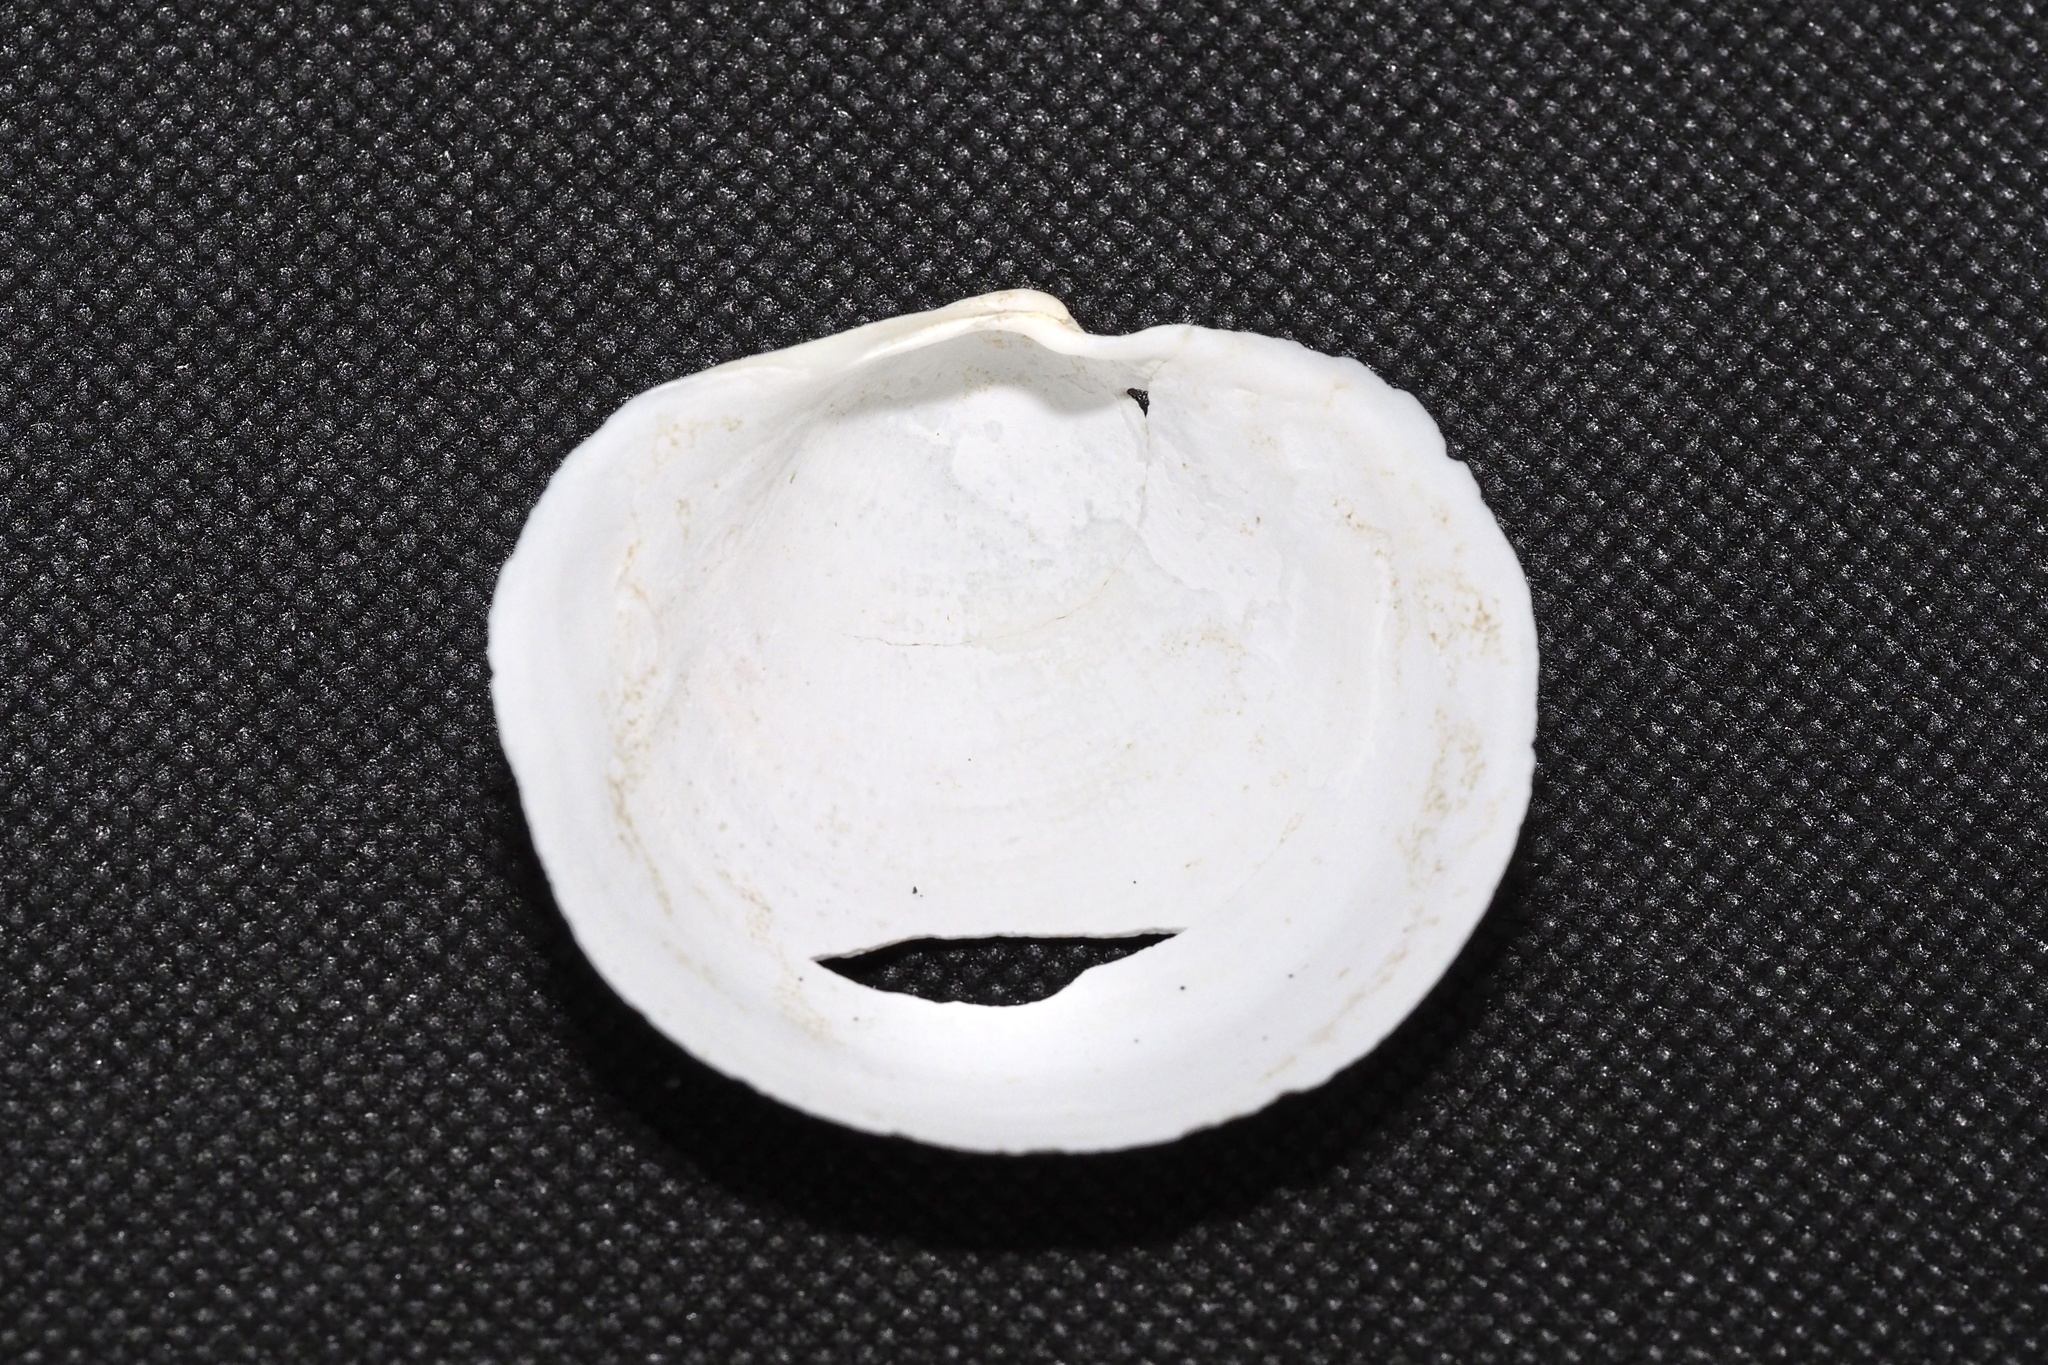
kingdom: Animalia
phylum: Mollusca
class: Bivalvia
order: Lucinida
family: Lucinidae
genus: Pegophysema
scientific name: Pegophysema bialata
